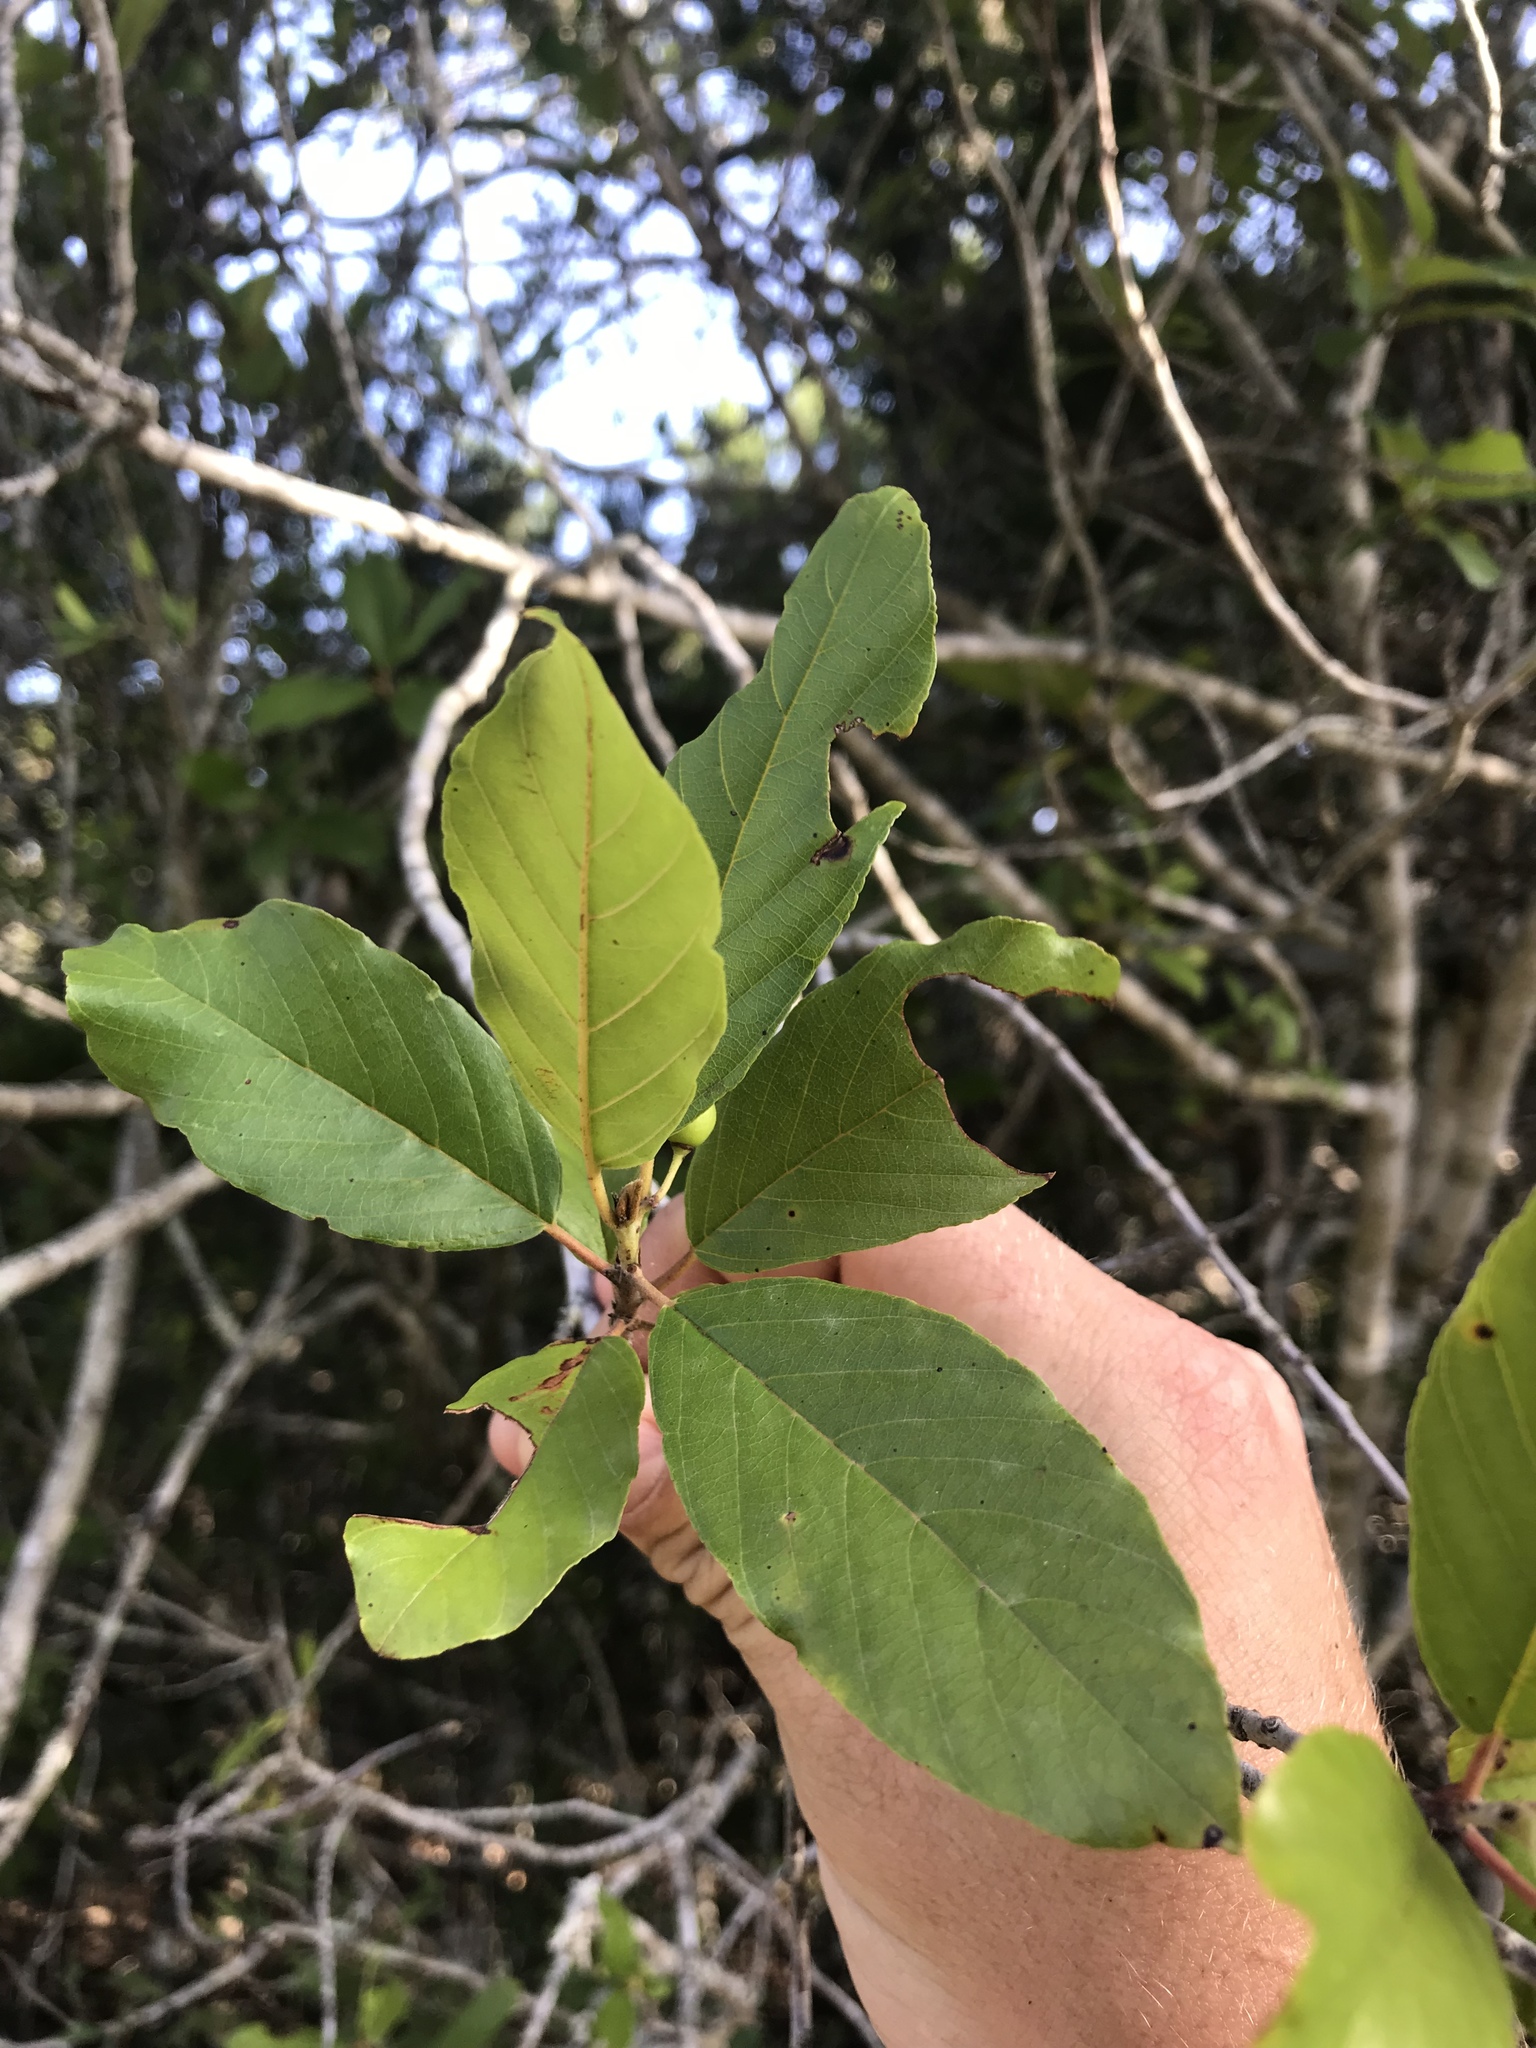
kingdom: Plantae
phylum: Tracheophyta
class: Magnoliopsida
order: Rosales
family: Rhamnaceae
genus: Frangula
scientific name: Frangula caroliniana
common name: Carolina buckthorn
